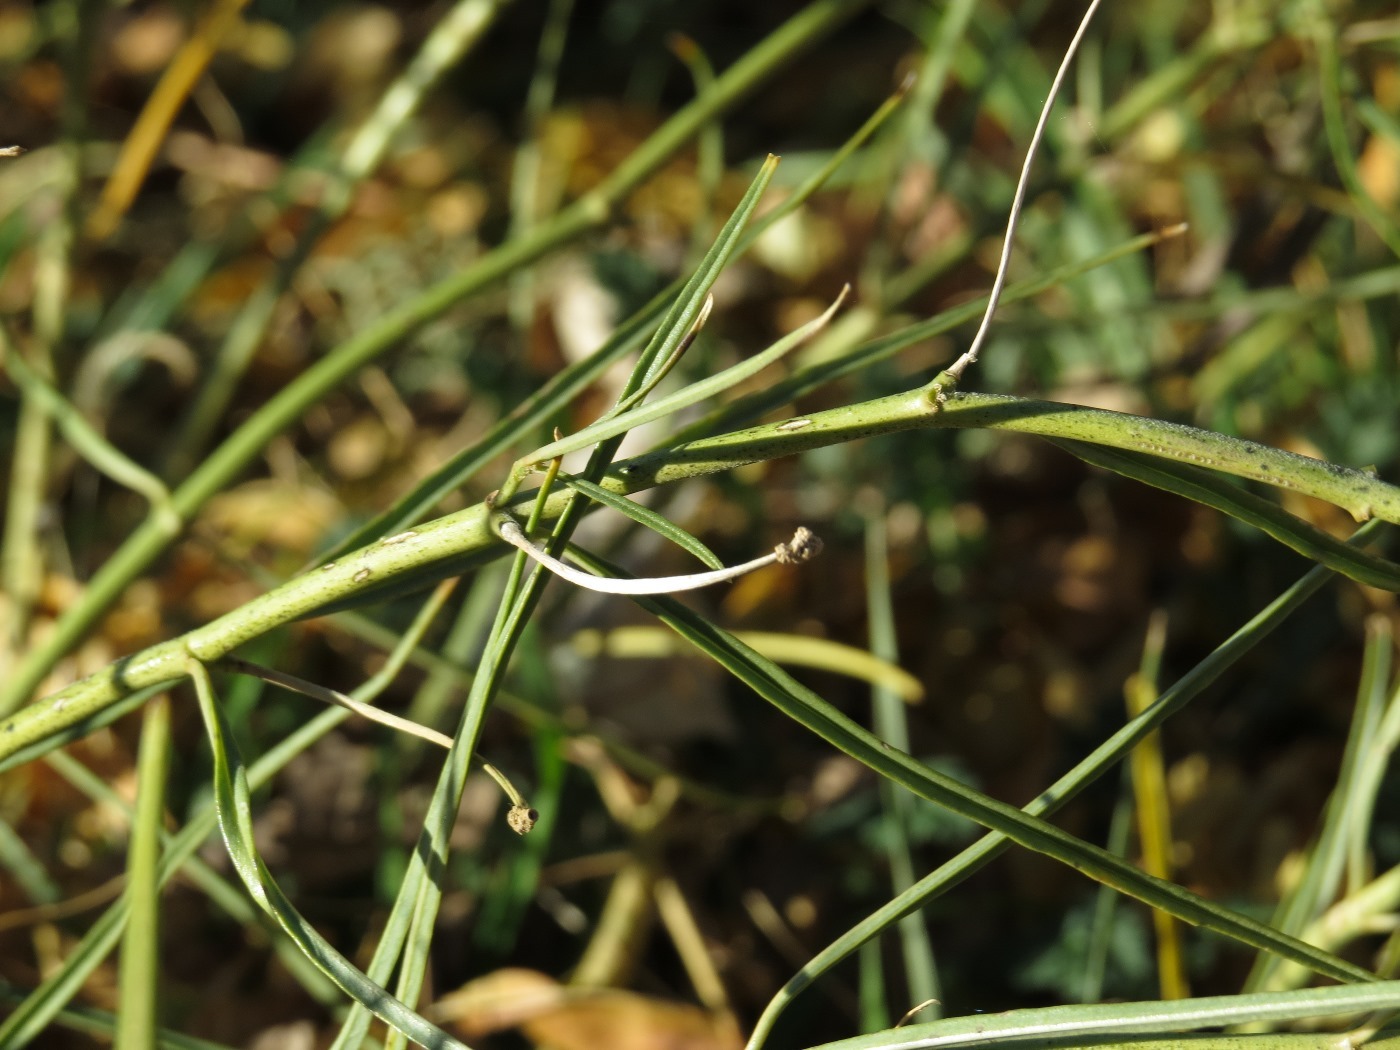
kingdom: Plantae
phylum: Tracheophyta
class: Magnoliopsida
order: Gentianales
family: Apocynaceae
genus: Asclepias
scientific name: Asclepias subverticillata
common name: Horsetail milkweed
